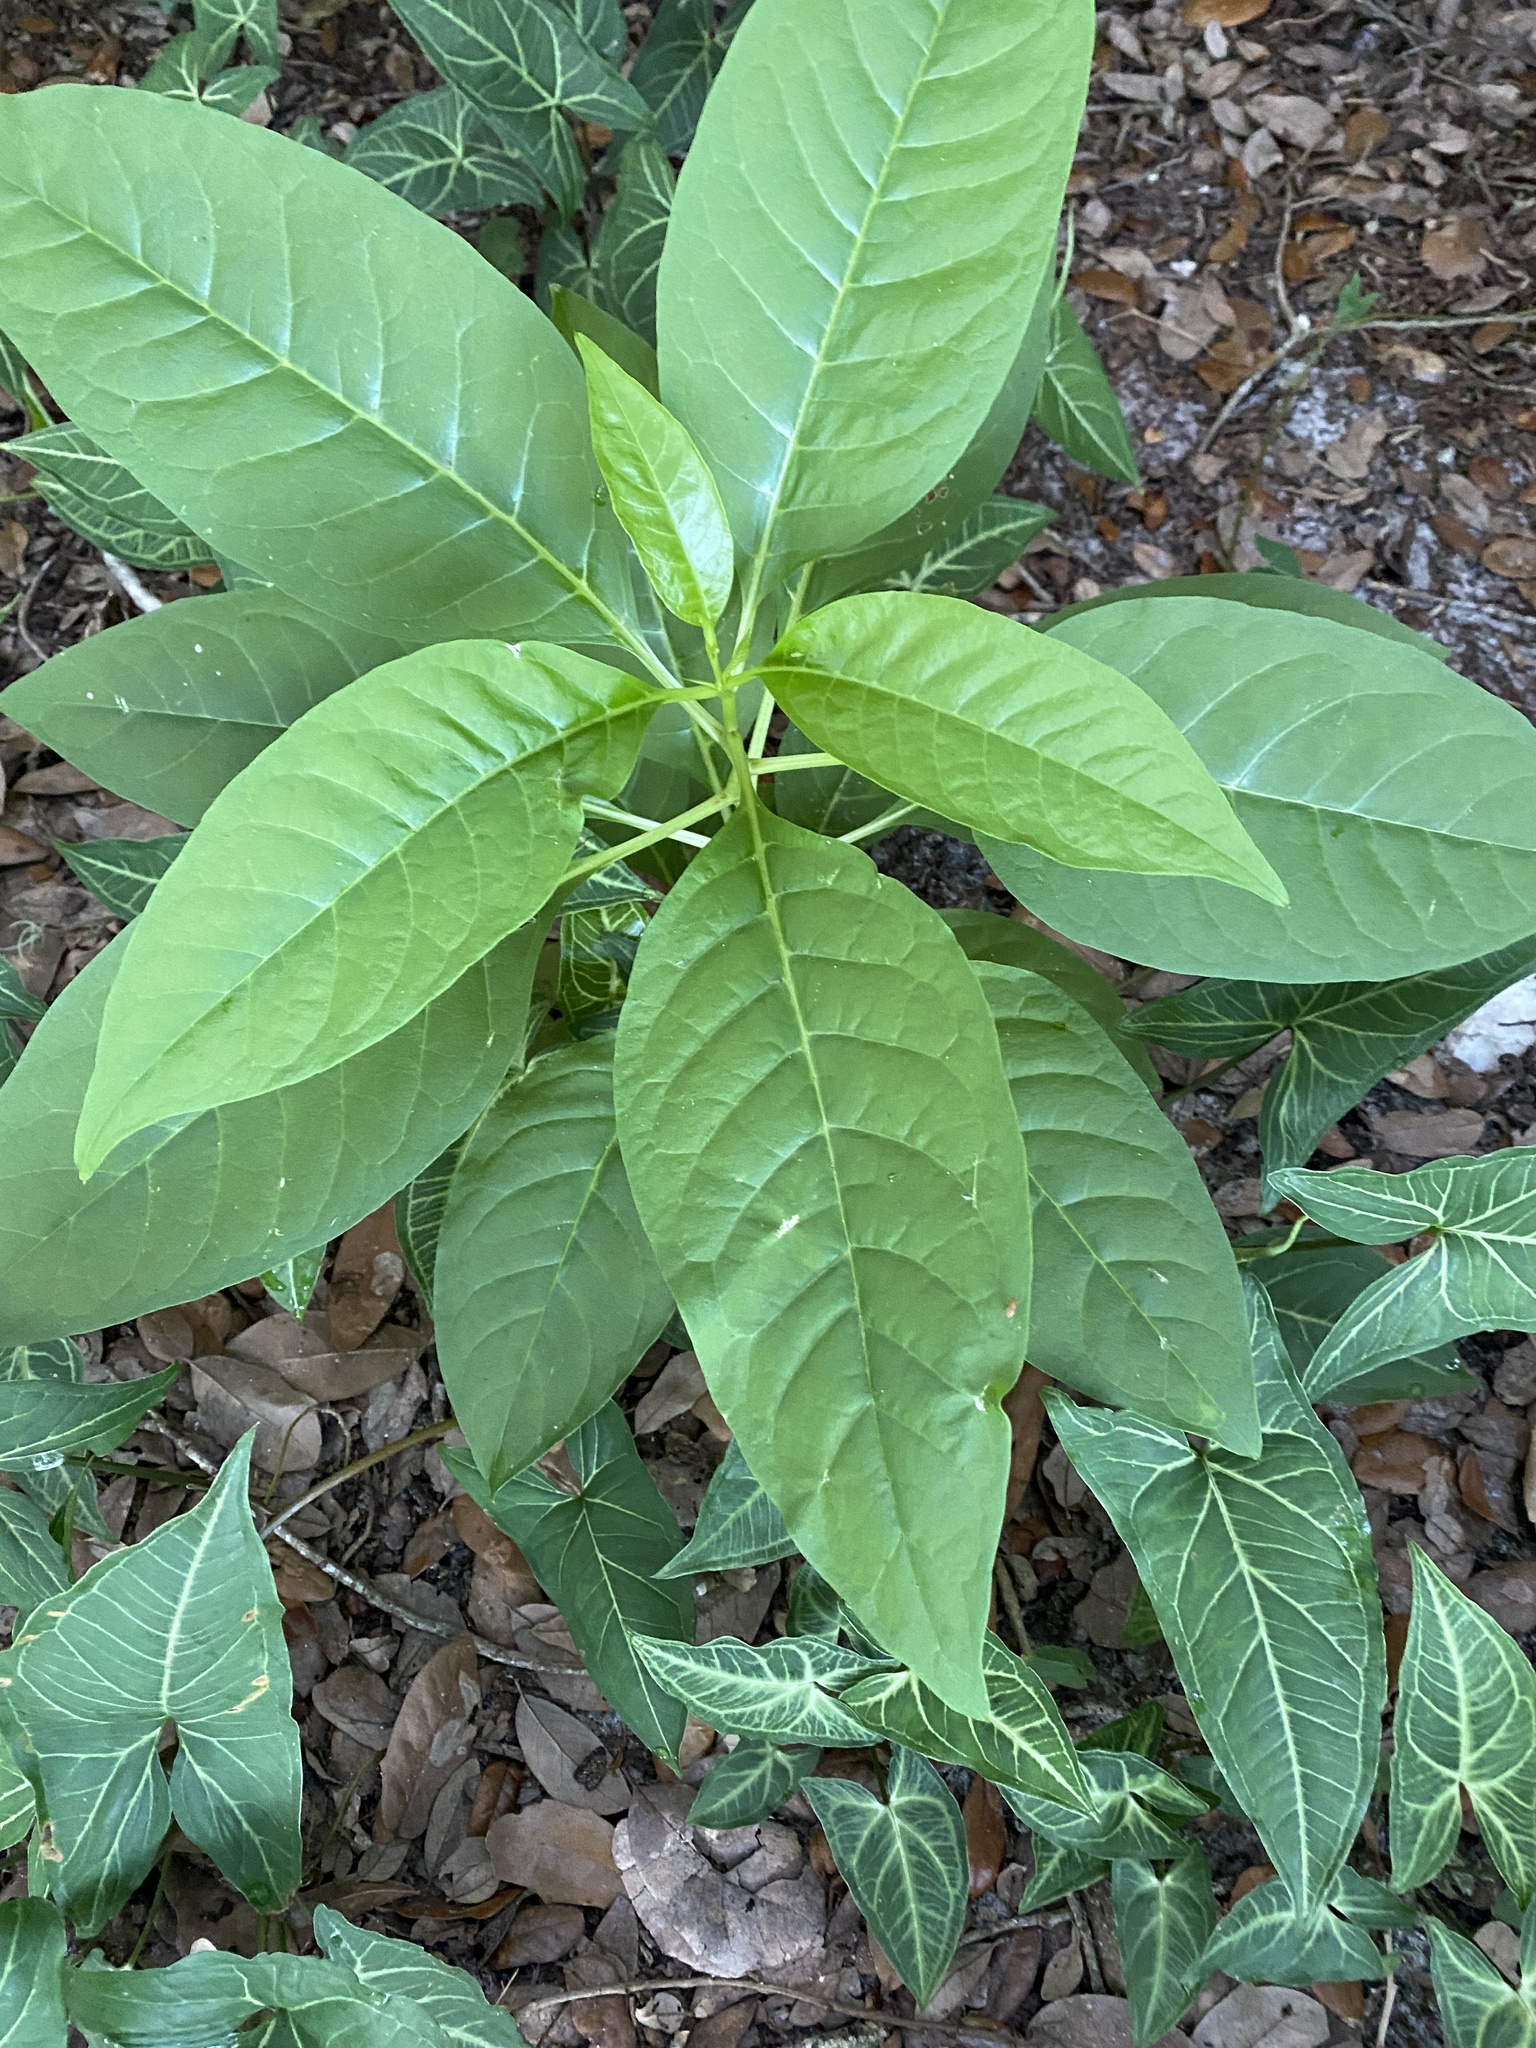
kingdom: Plantae
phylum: Tracheophyta
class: Magnoliopsida
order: Caryophyllales
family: Phytolaccaceae
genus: Phytolacca
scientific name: Phytolacca americana
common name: American pokeweed
